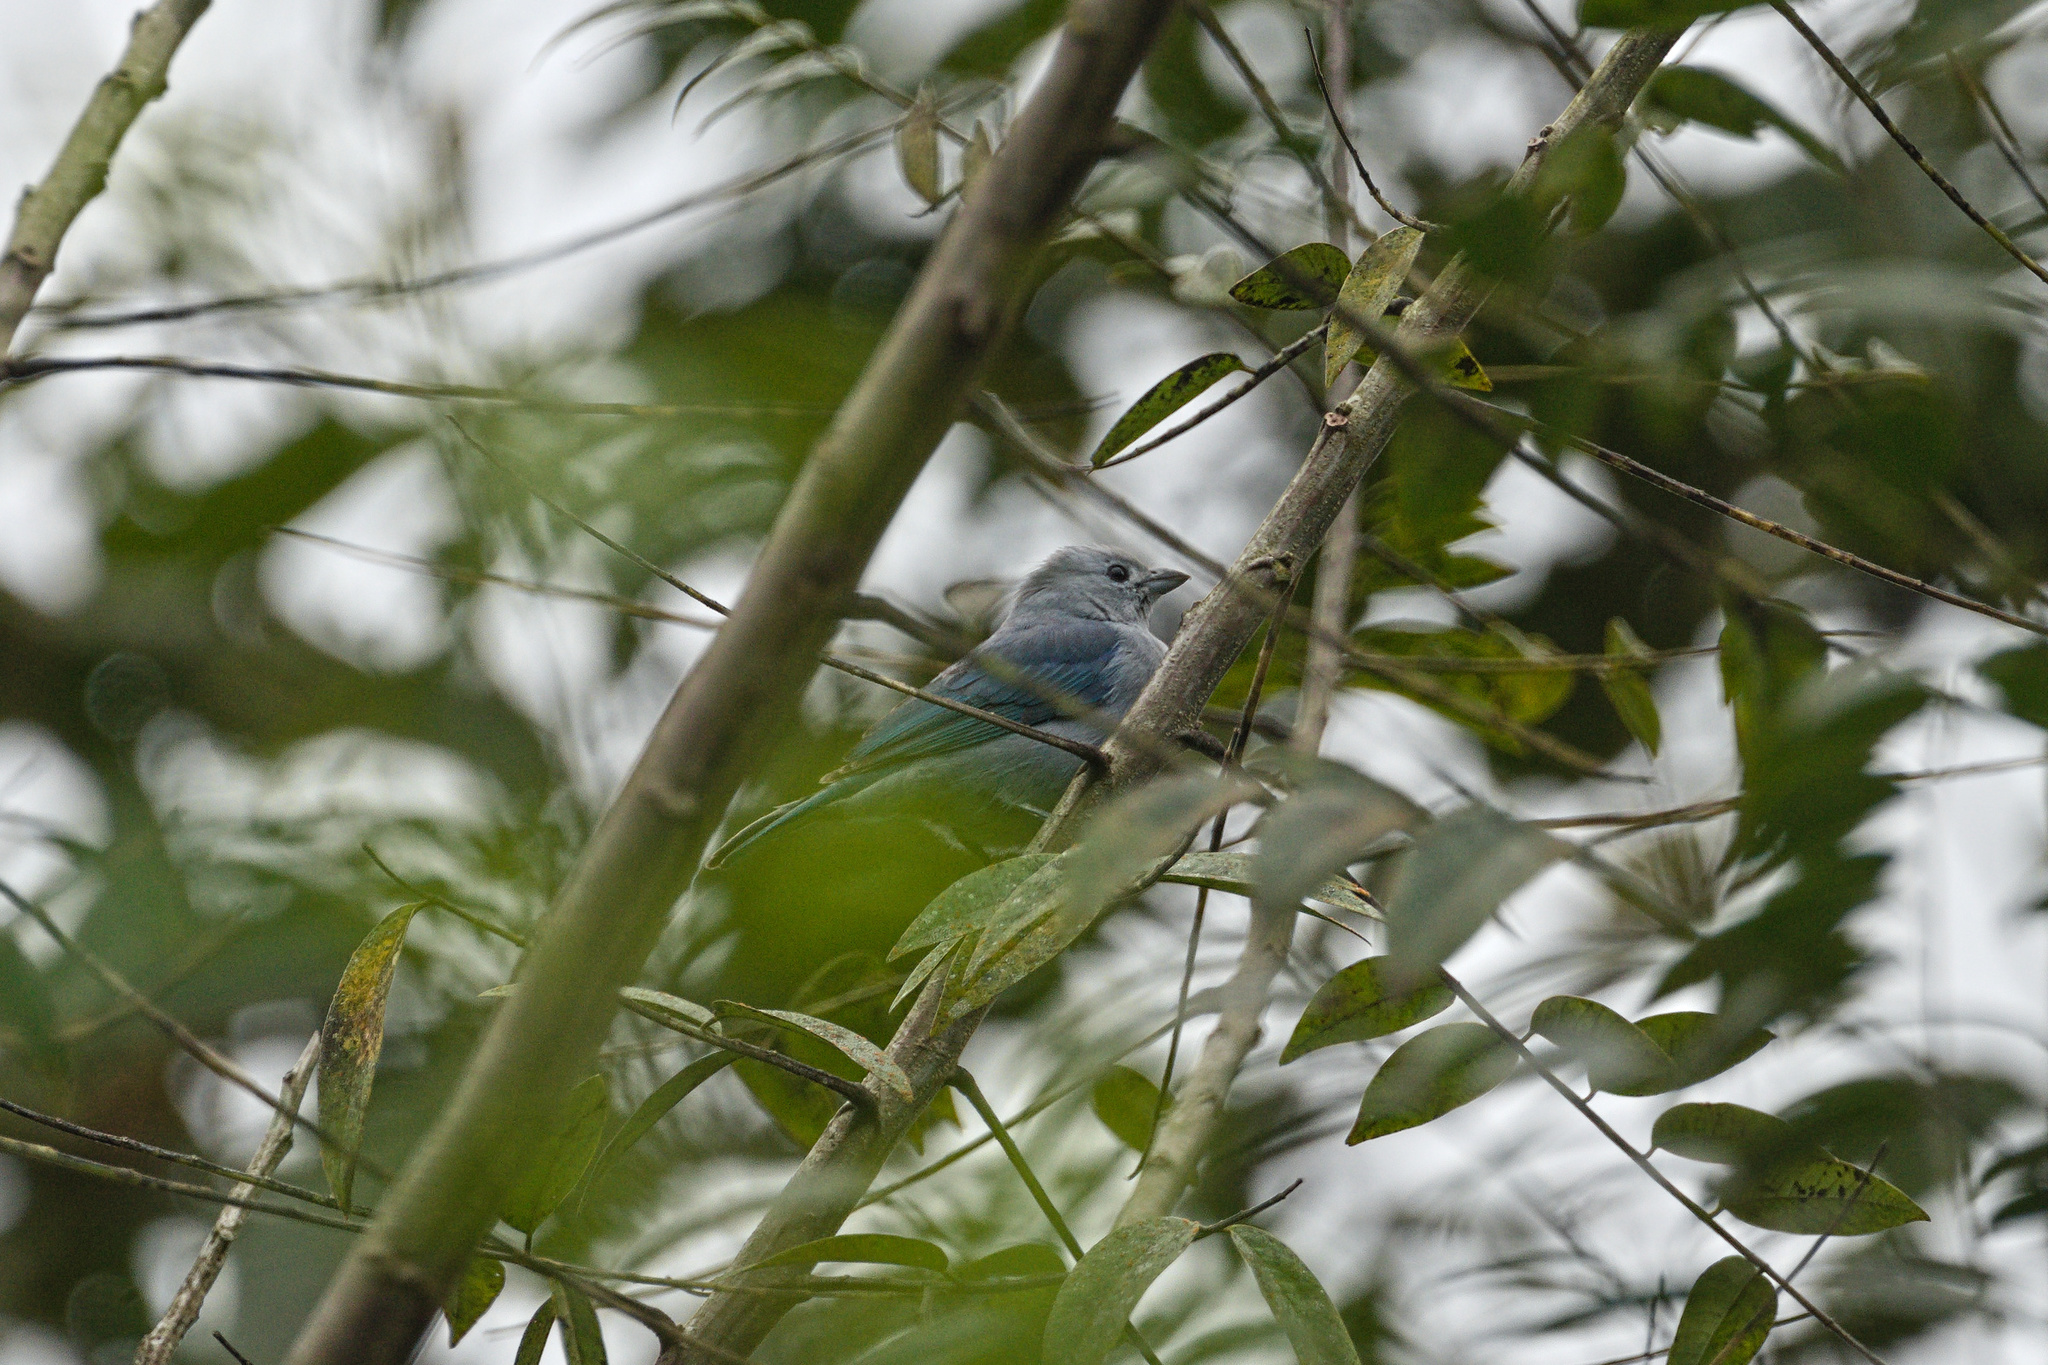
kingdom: Animalia
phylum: Chordata
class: Aves
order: Passeriformes
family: Thraupidae
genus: Thraupis
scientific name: Thraupis episcopus
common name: Blue-grey tanager
